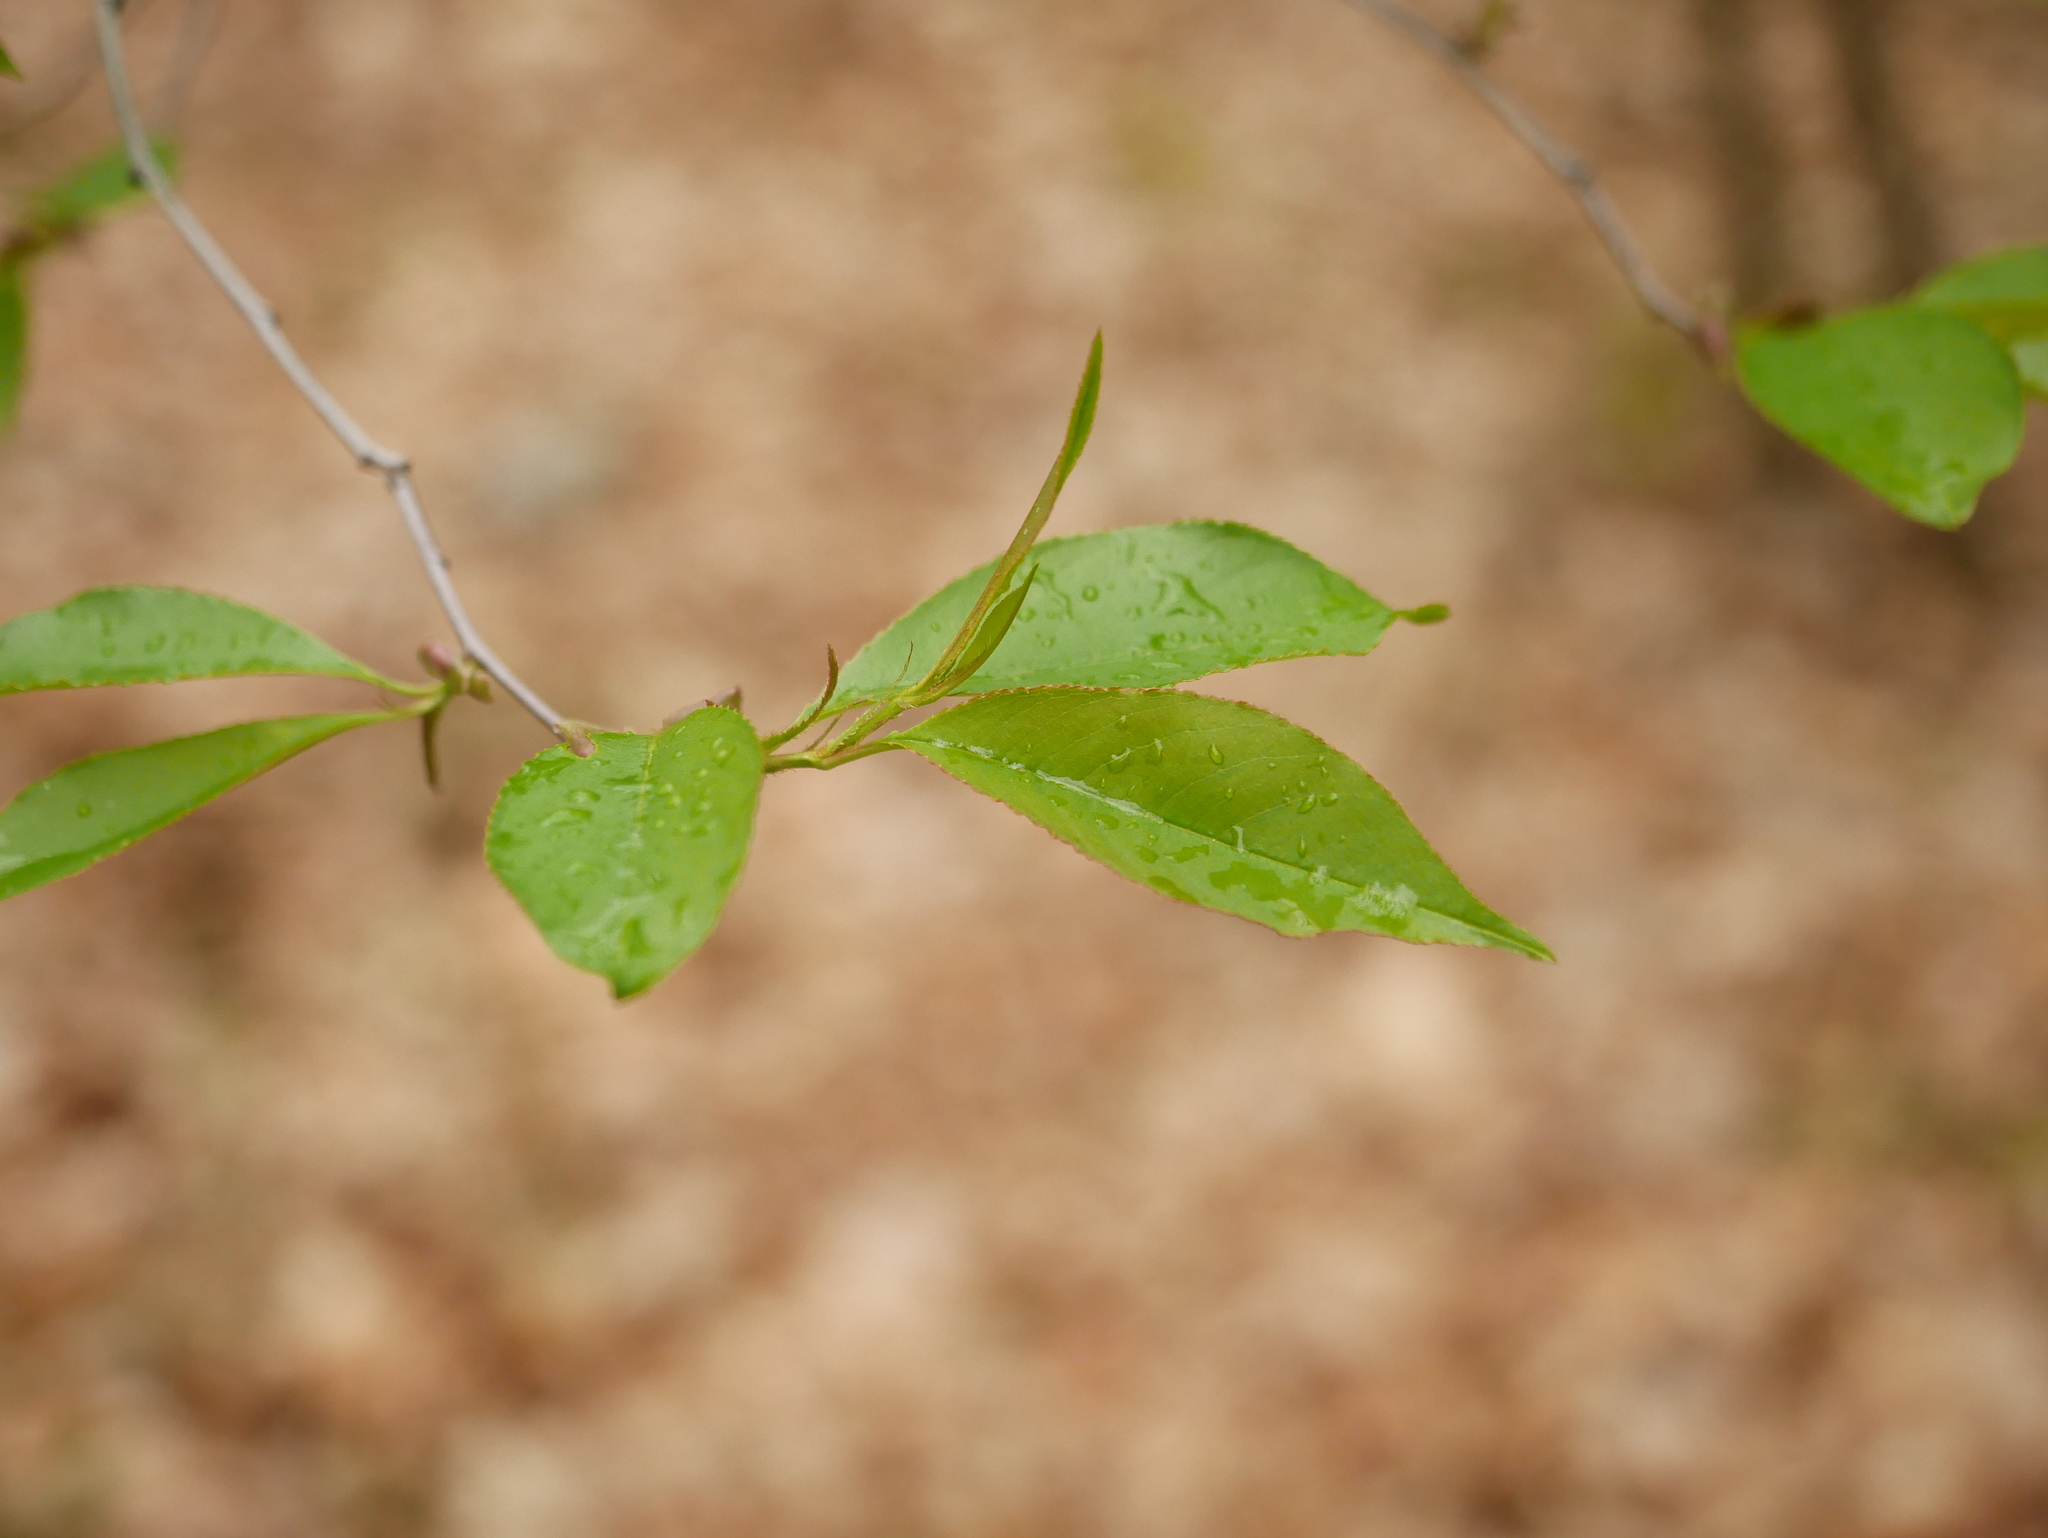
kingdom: Plantae
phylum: Tracheophyta
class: Magnoliopsida
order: Rosales
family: Rosaceae
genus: Prunus
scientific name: Prunus serotina
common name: Black cherry
